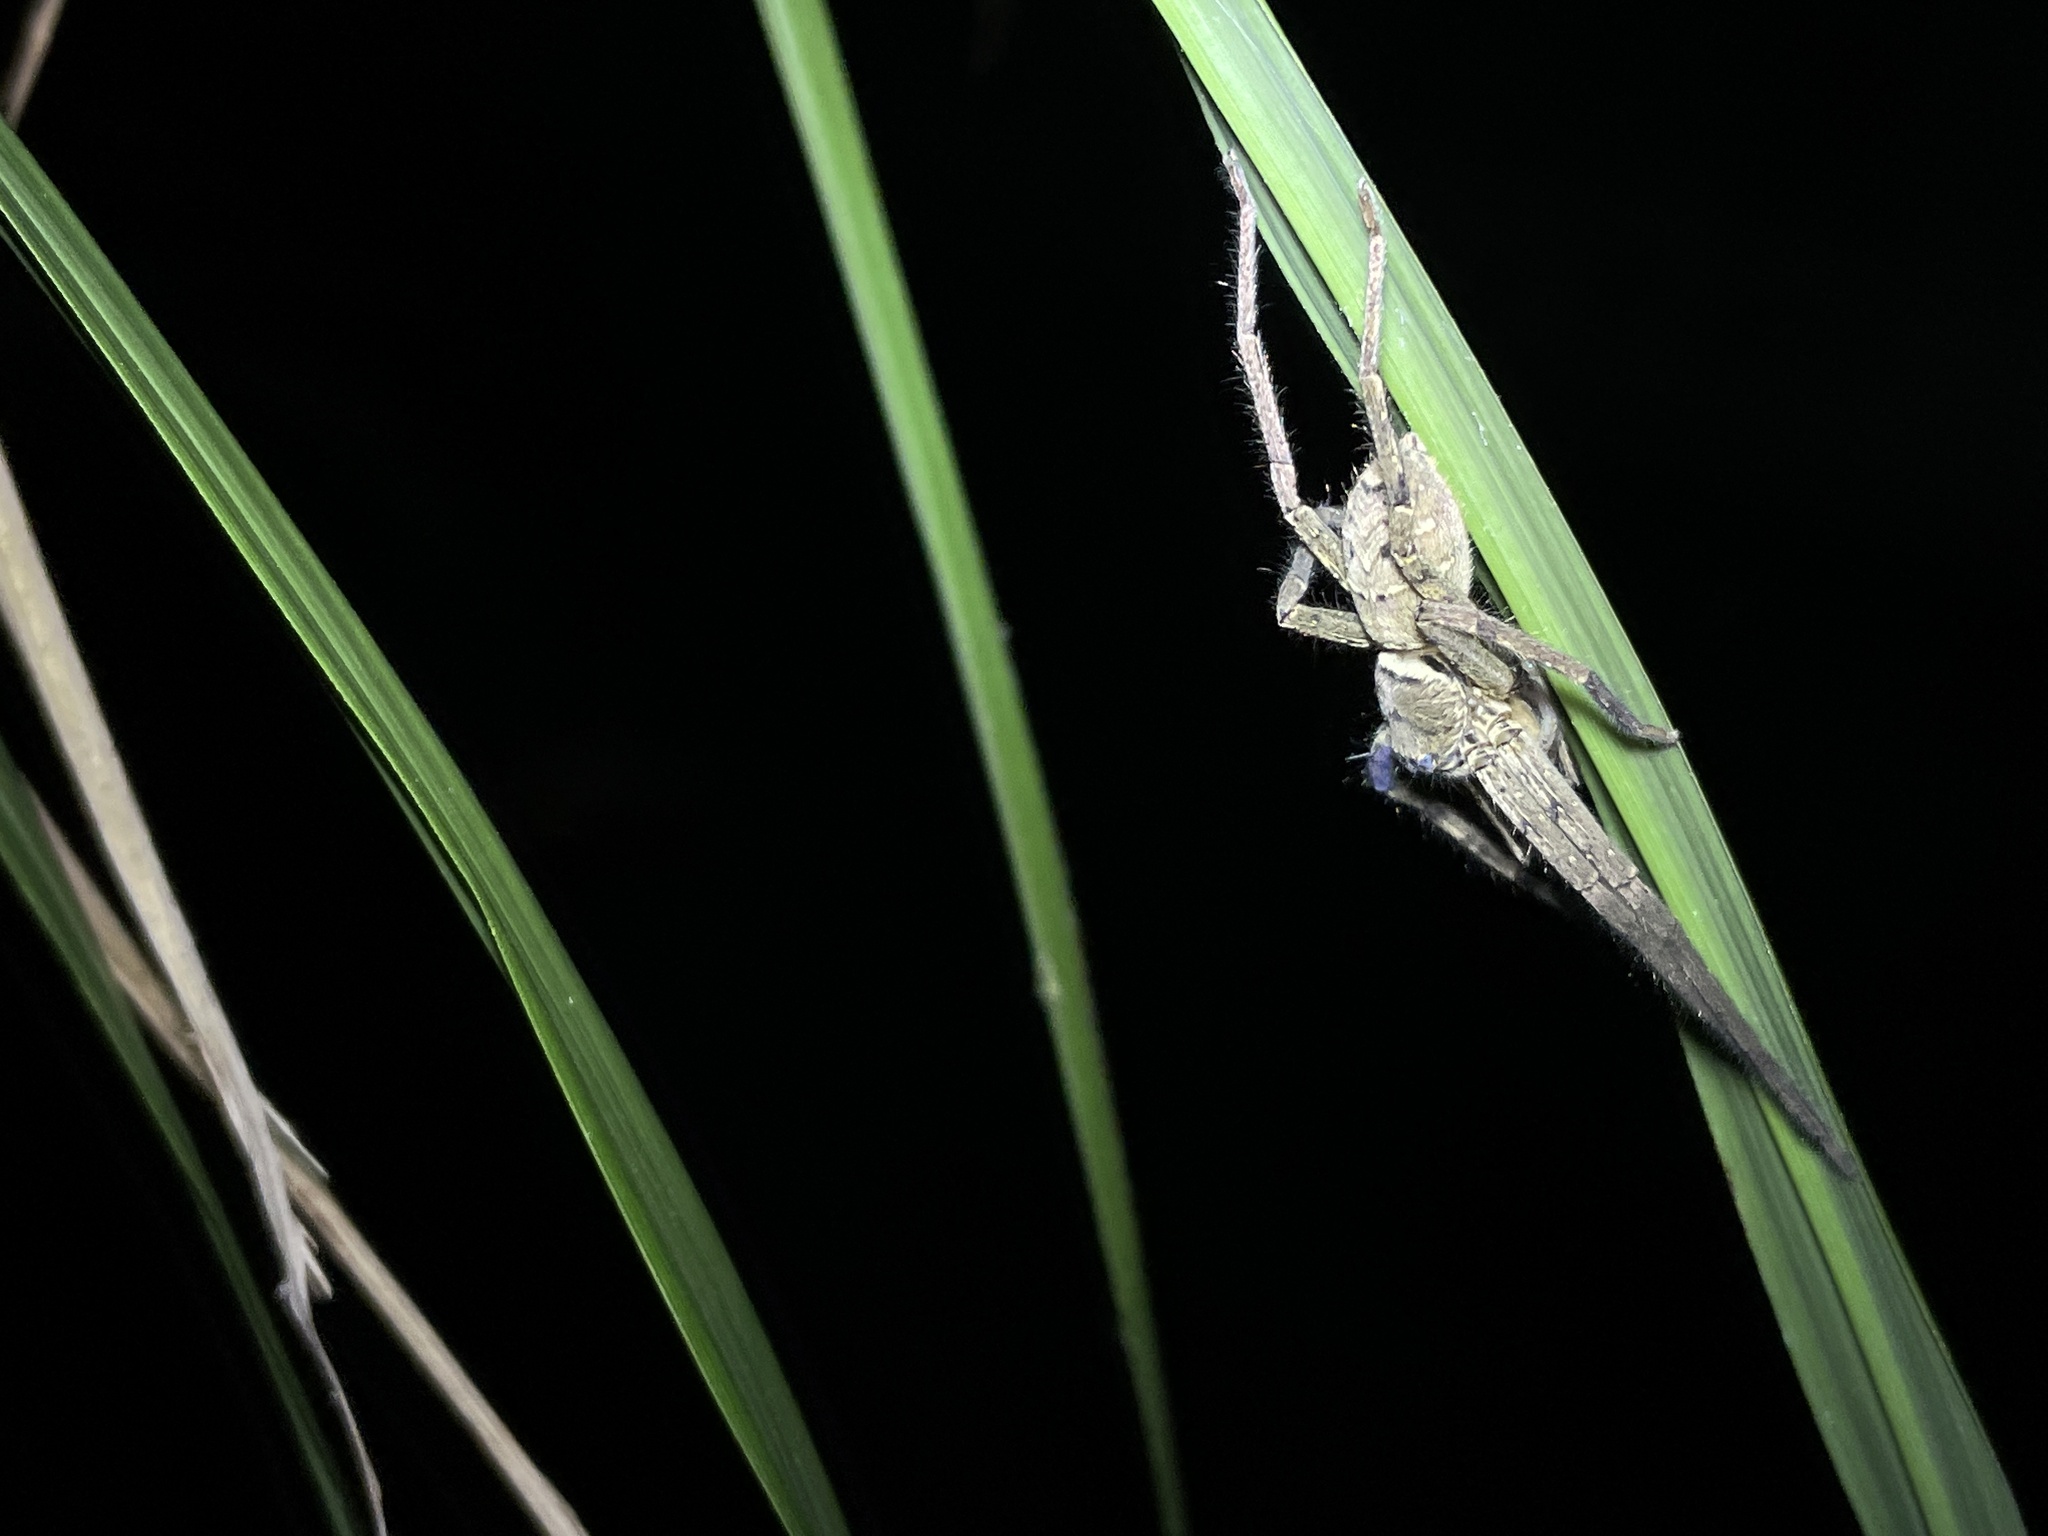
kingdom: Animalia
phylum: Arthropoda
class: Arachnida
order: Araneae
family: Sparassidae
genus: Heteropoda
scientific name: Heteropoda venatoria
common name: Huntsman spider
